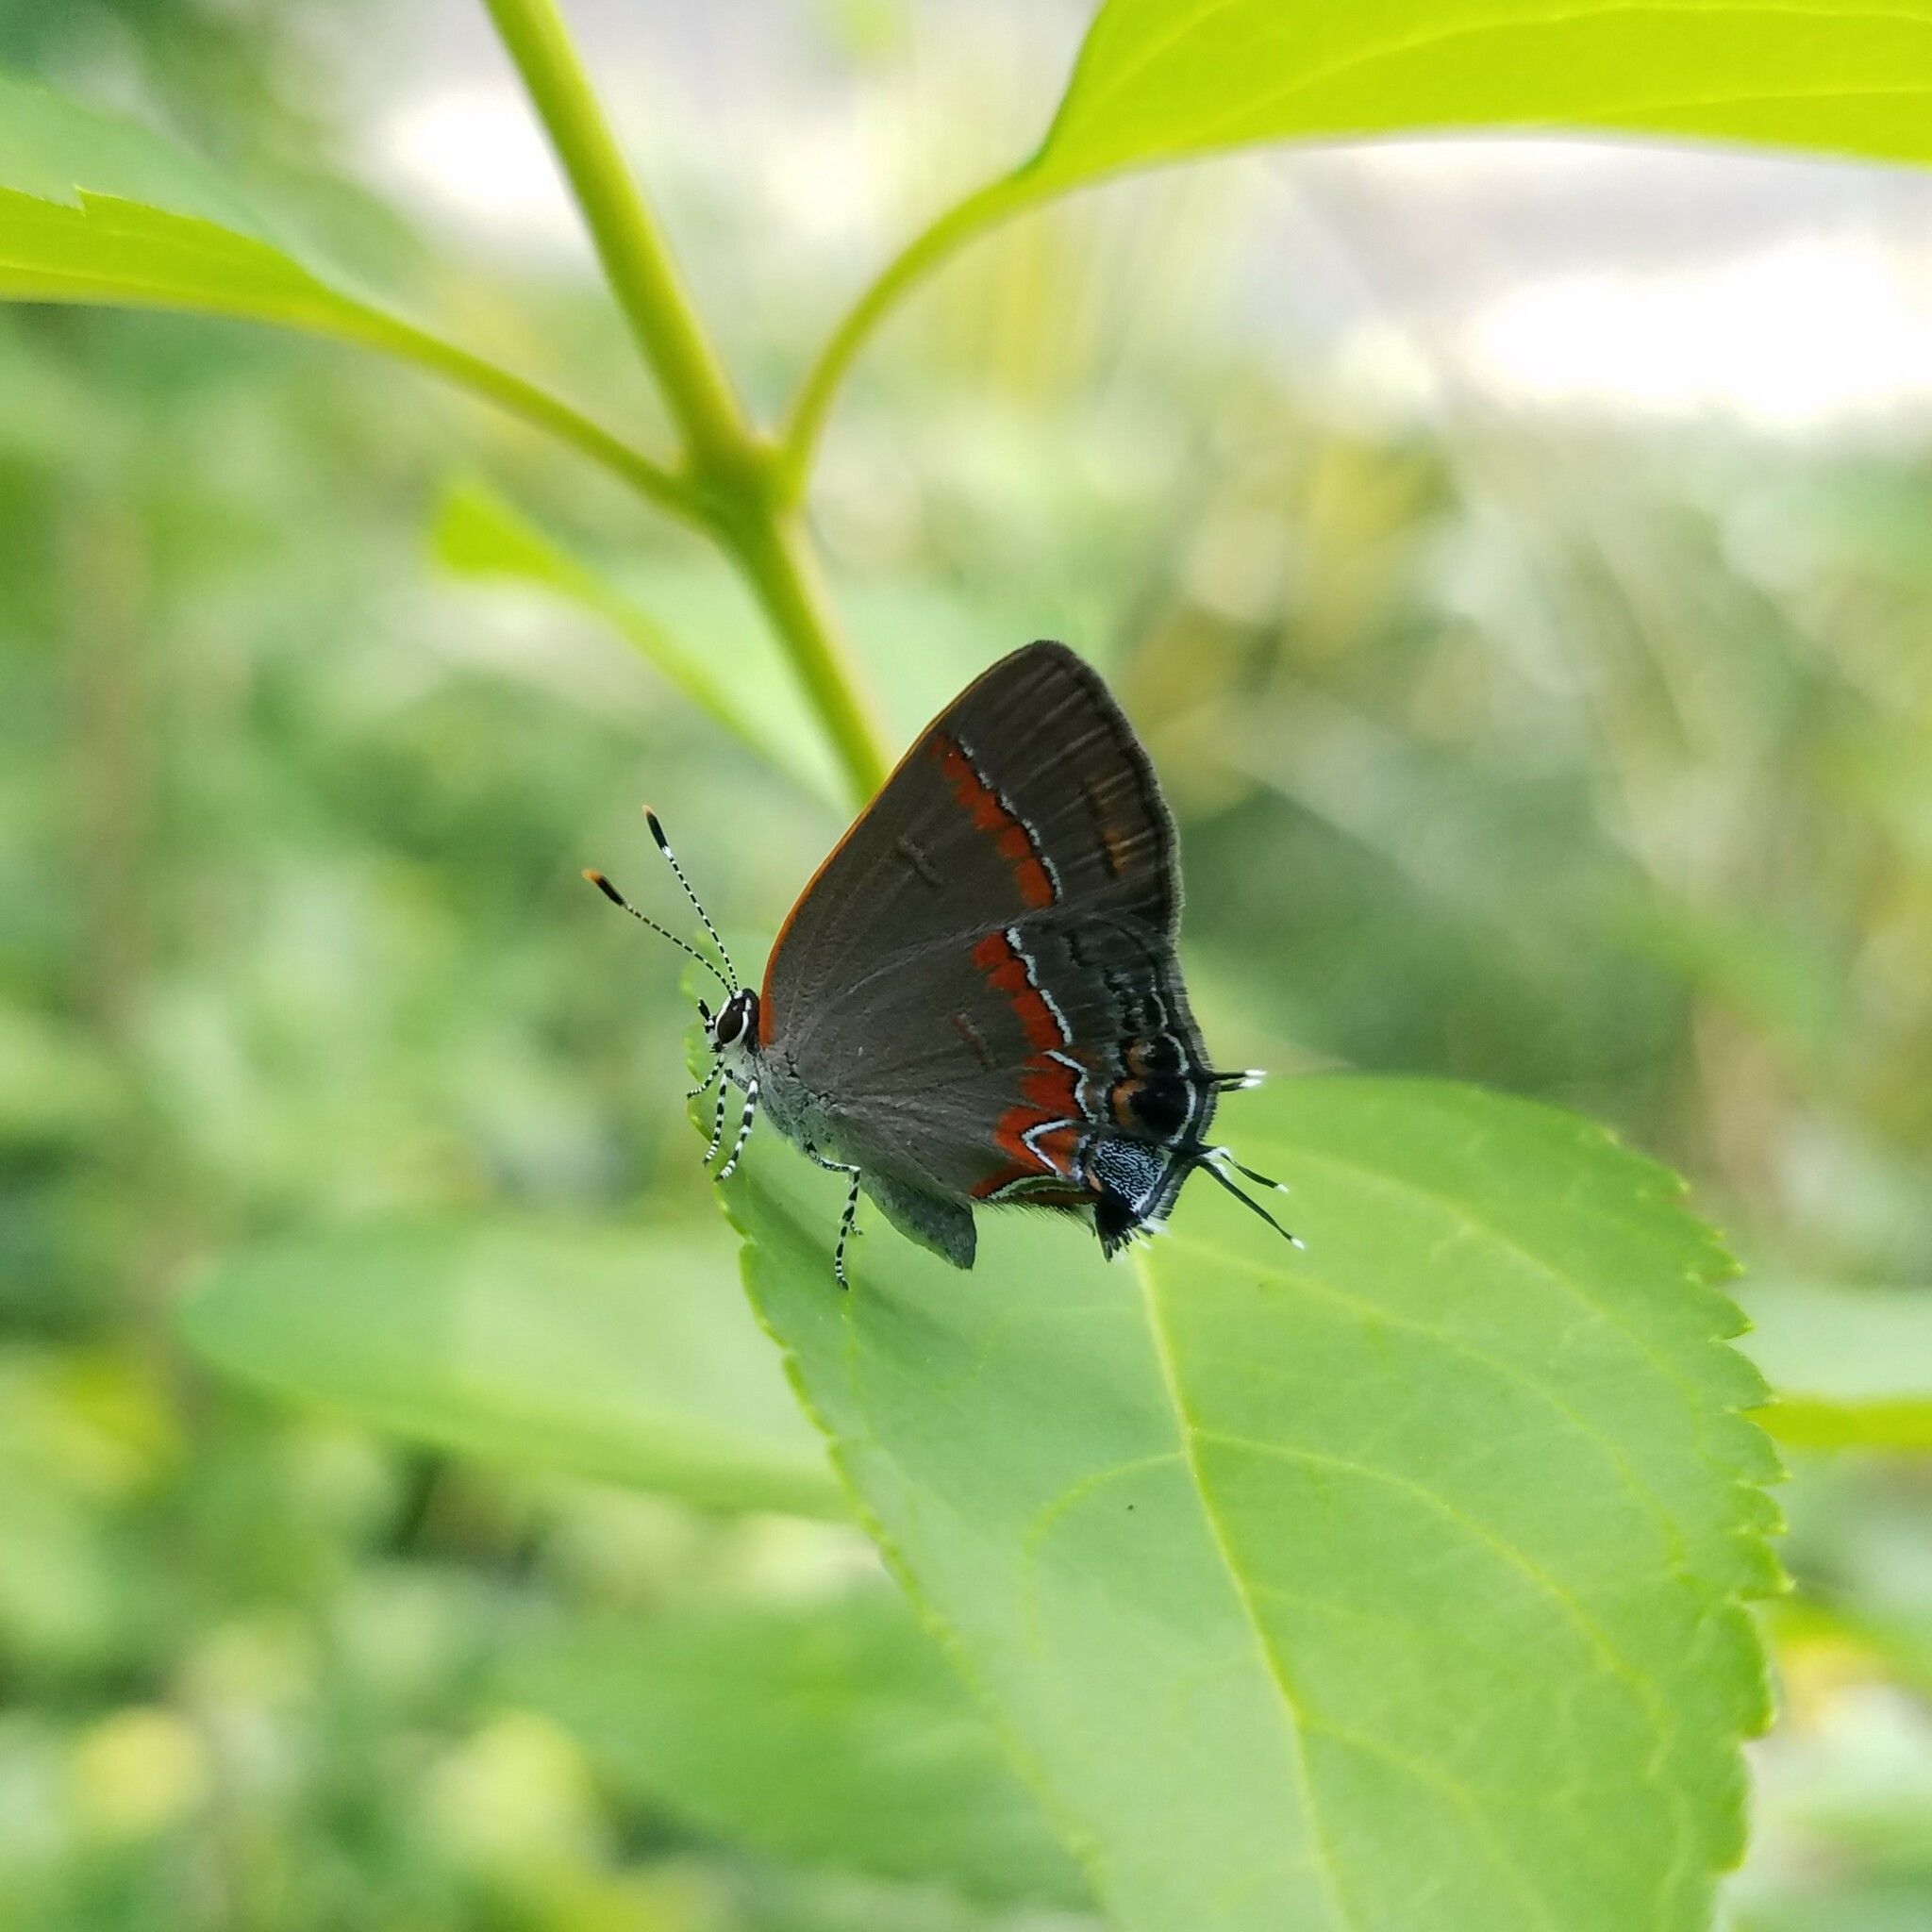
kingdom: Animalia
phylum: Arthropoda
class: Insecta
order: Lepidoptera
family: Lycaenidae
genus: Calycopis
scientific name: Calycopis cecrops
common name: Red-banded hairstreak
